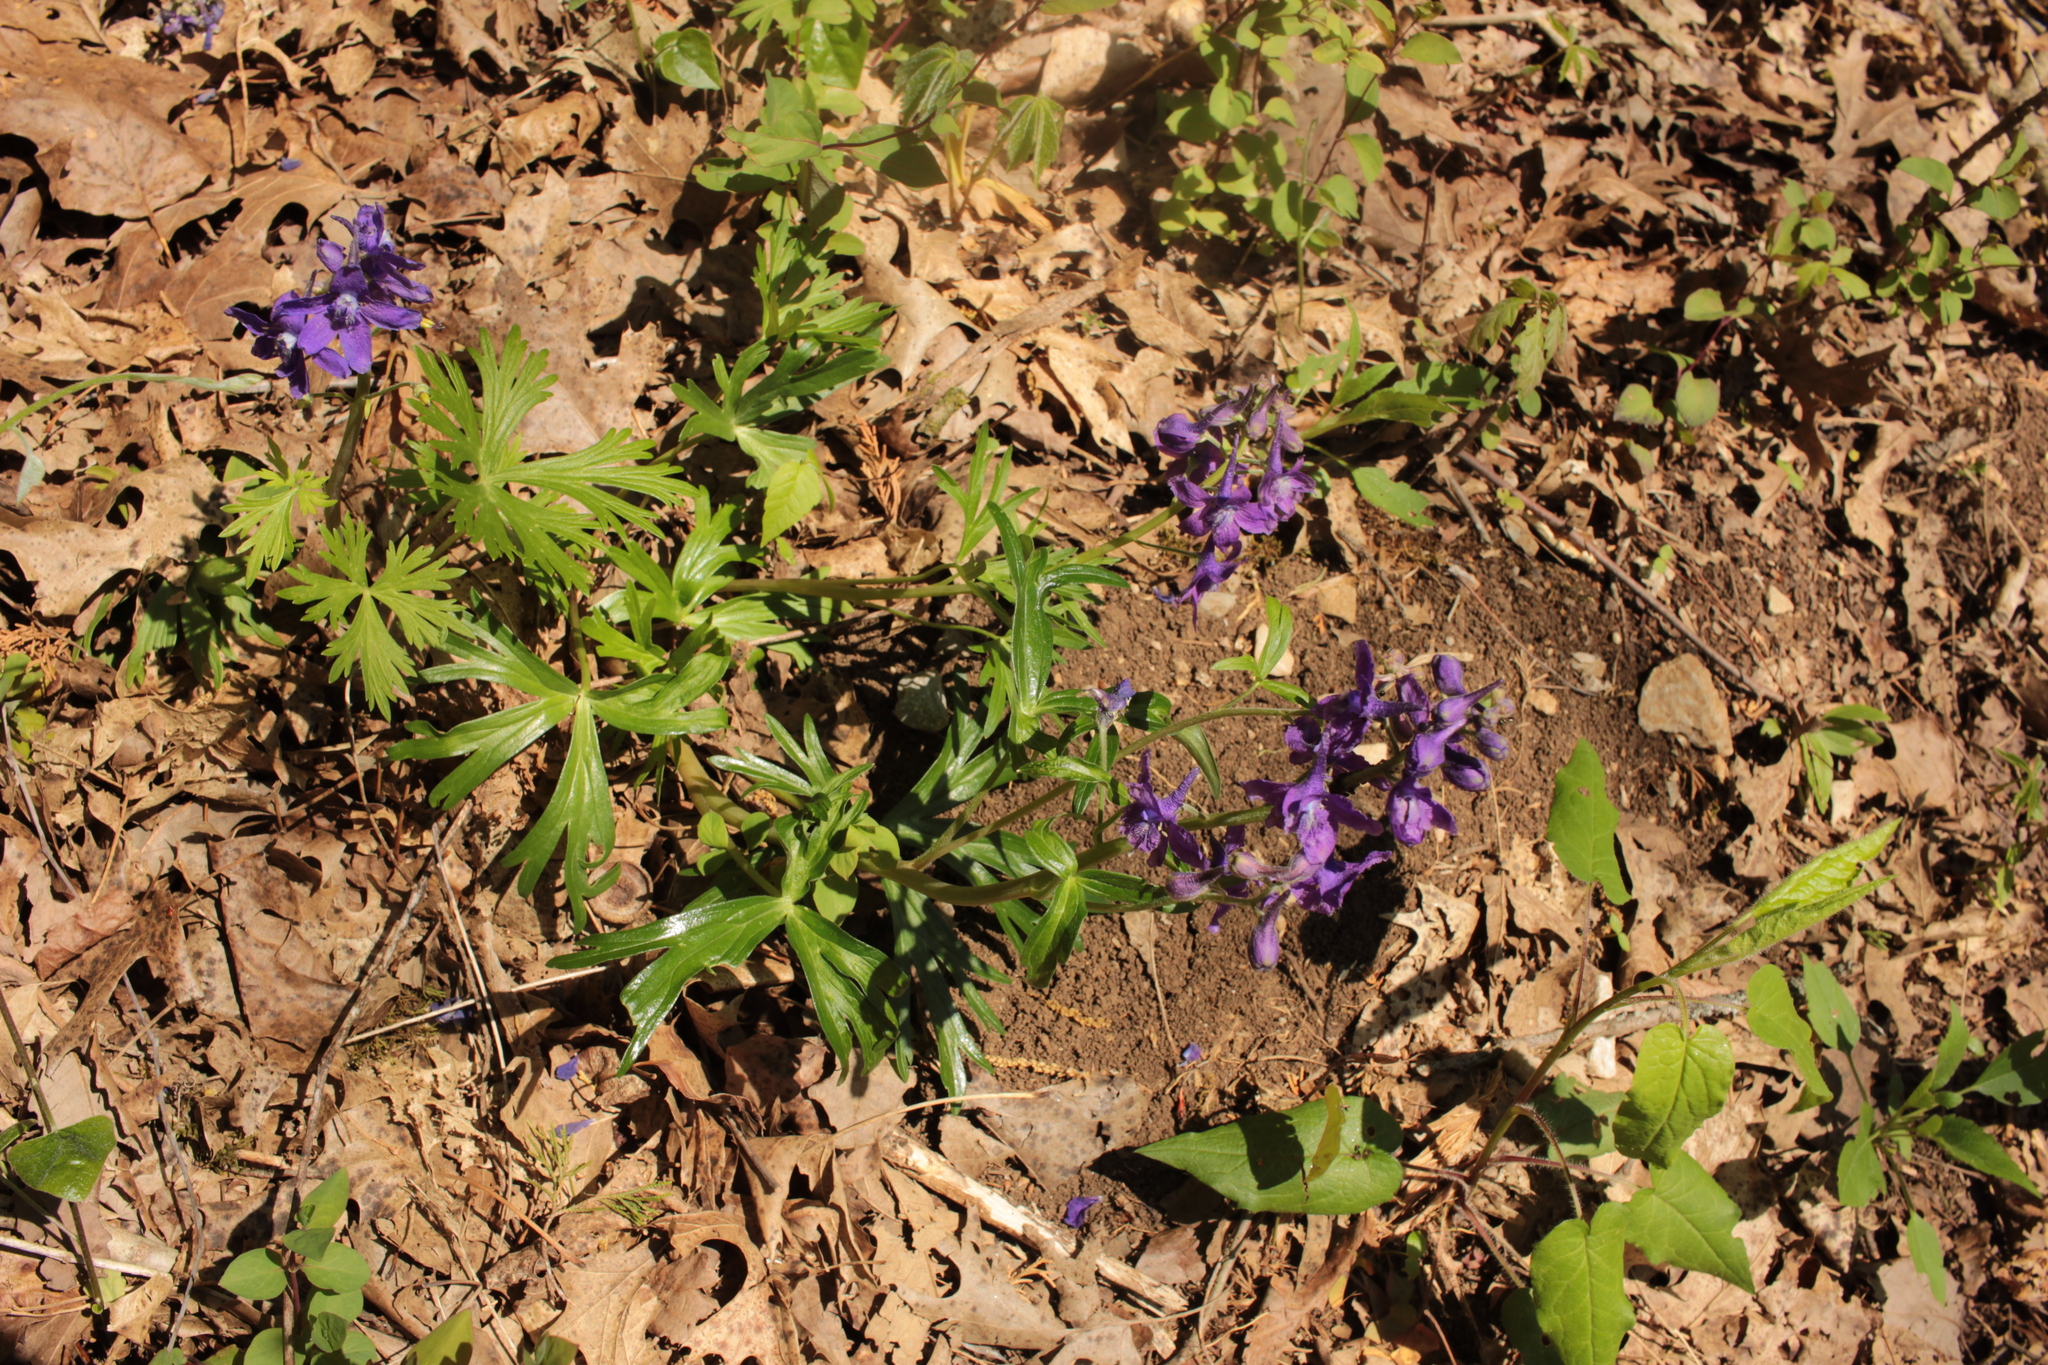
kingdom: Plantae
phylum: Tracheophyta
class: Magnoliopsida
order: Ranunculales
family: Ranunculaceae
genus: Delphinium
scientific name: Delphinium tricorne
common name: Dwarf larkspur
